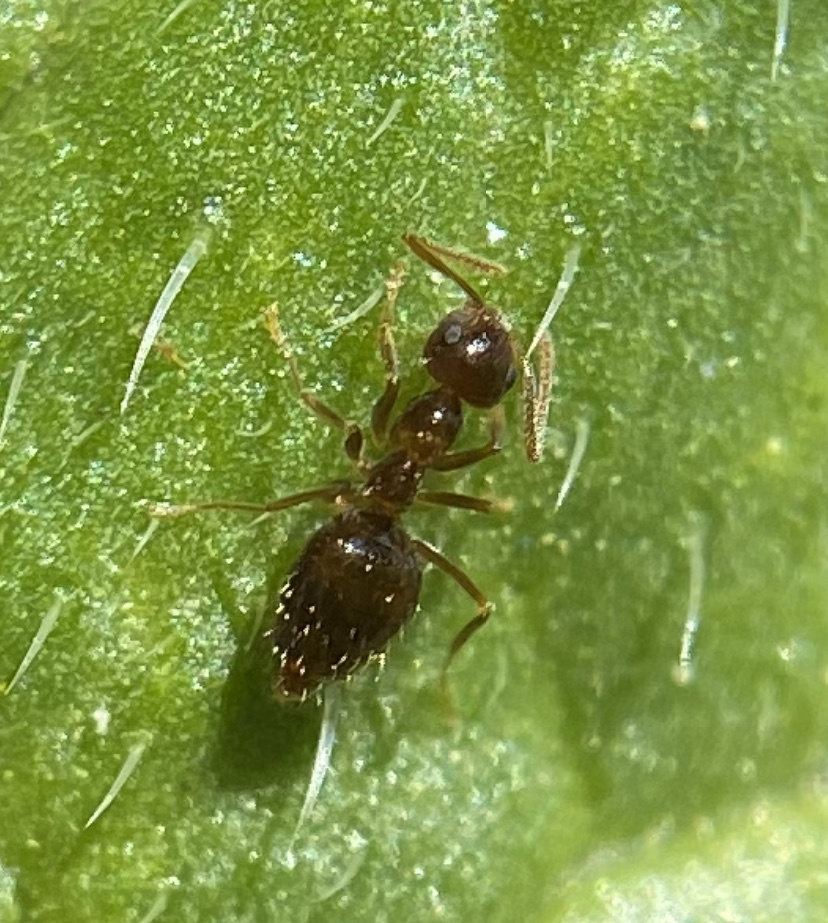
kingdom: Animalia
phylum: Arthropoda
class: Insecta
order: Hymenoptera
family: Formicidae
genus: Prenolepis
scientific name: Prenolepis imparis
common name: Small honey ant
